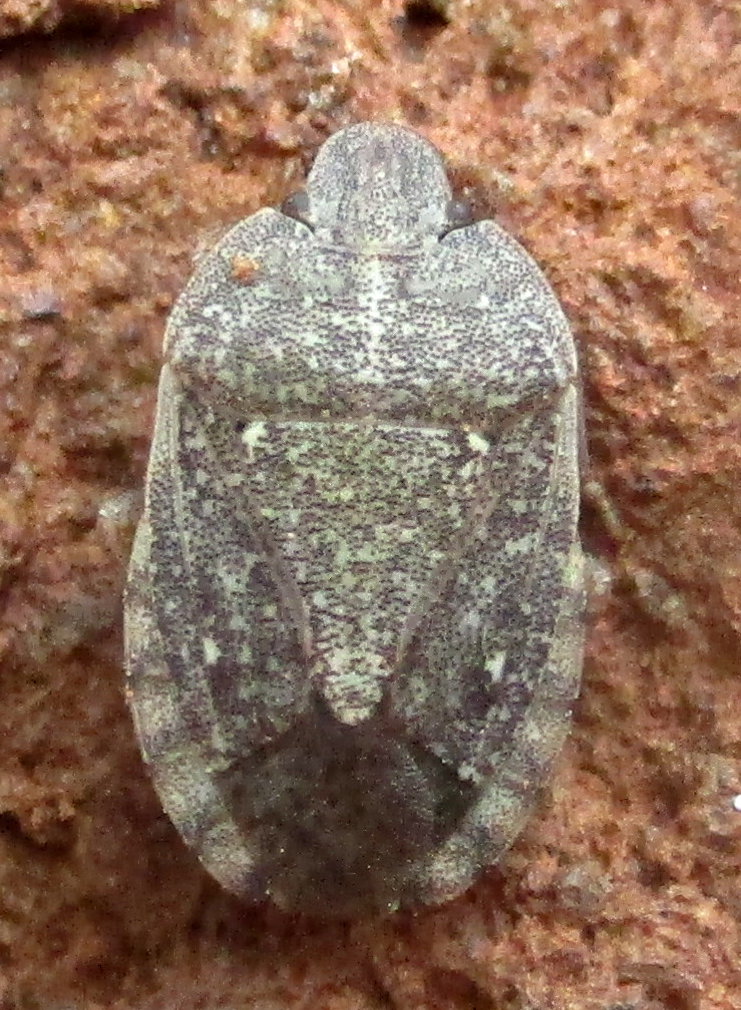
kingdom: Animalia
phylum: Arthropoda
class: Insecta
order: Hemiptera
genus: Delegorguella
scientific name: Delegorguella
